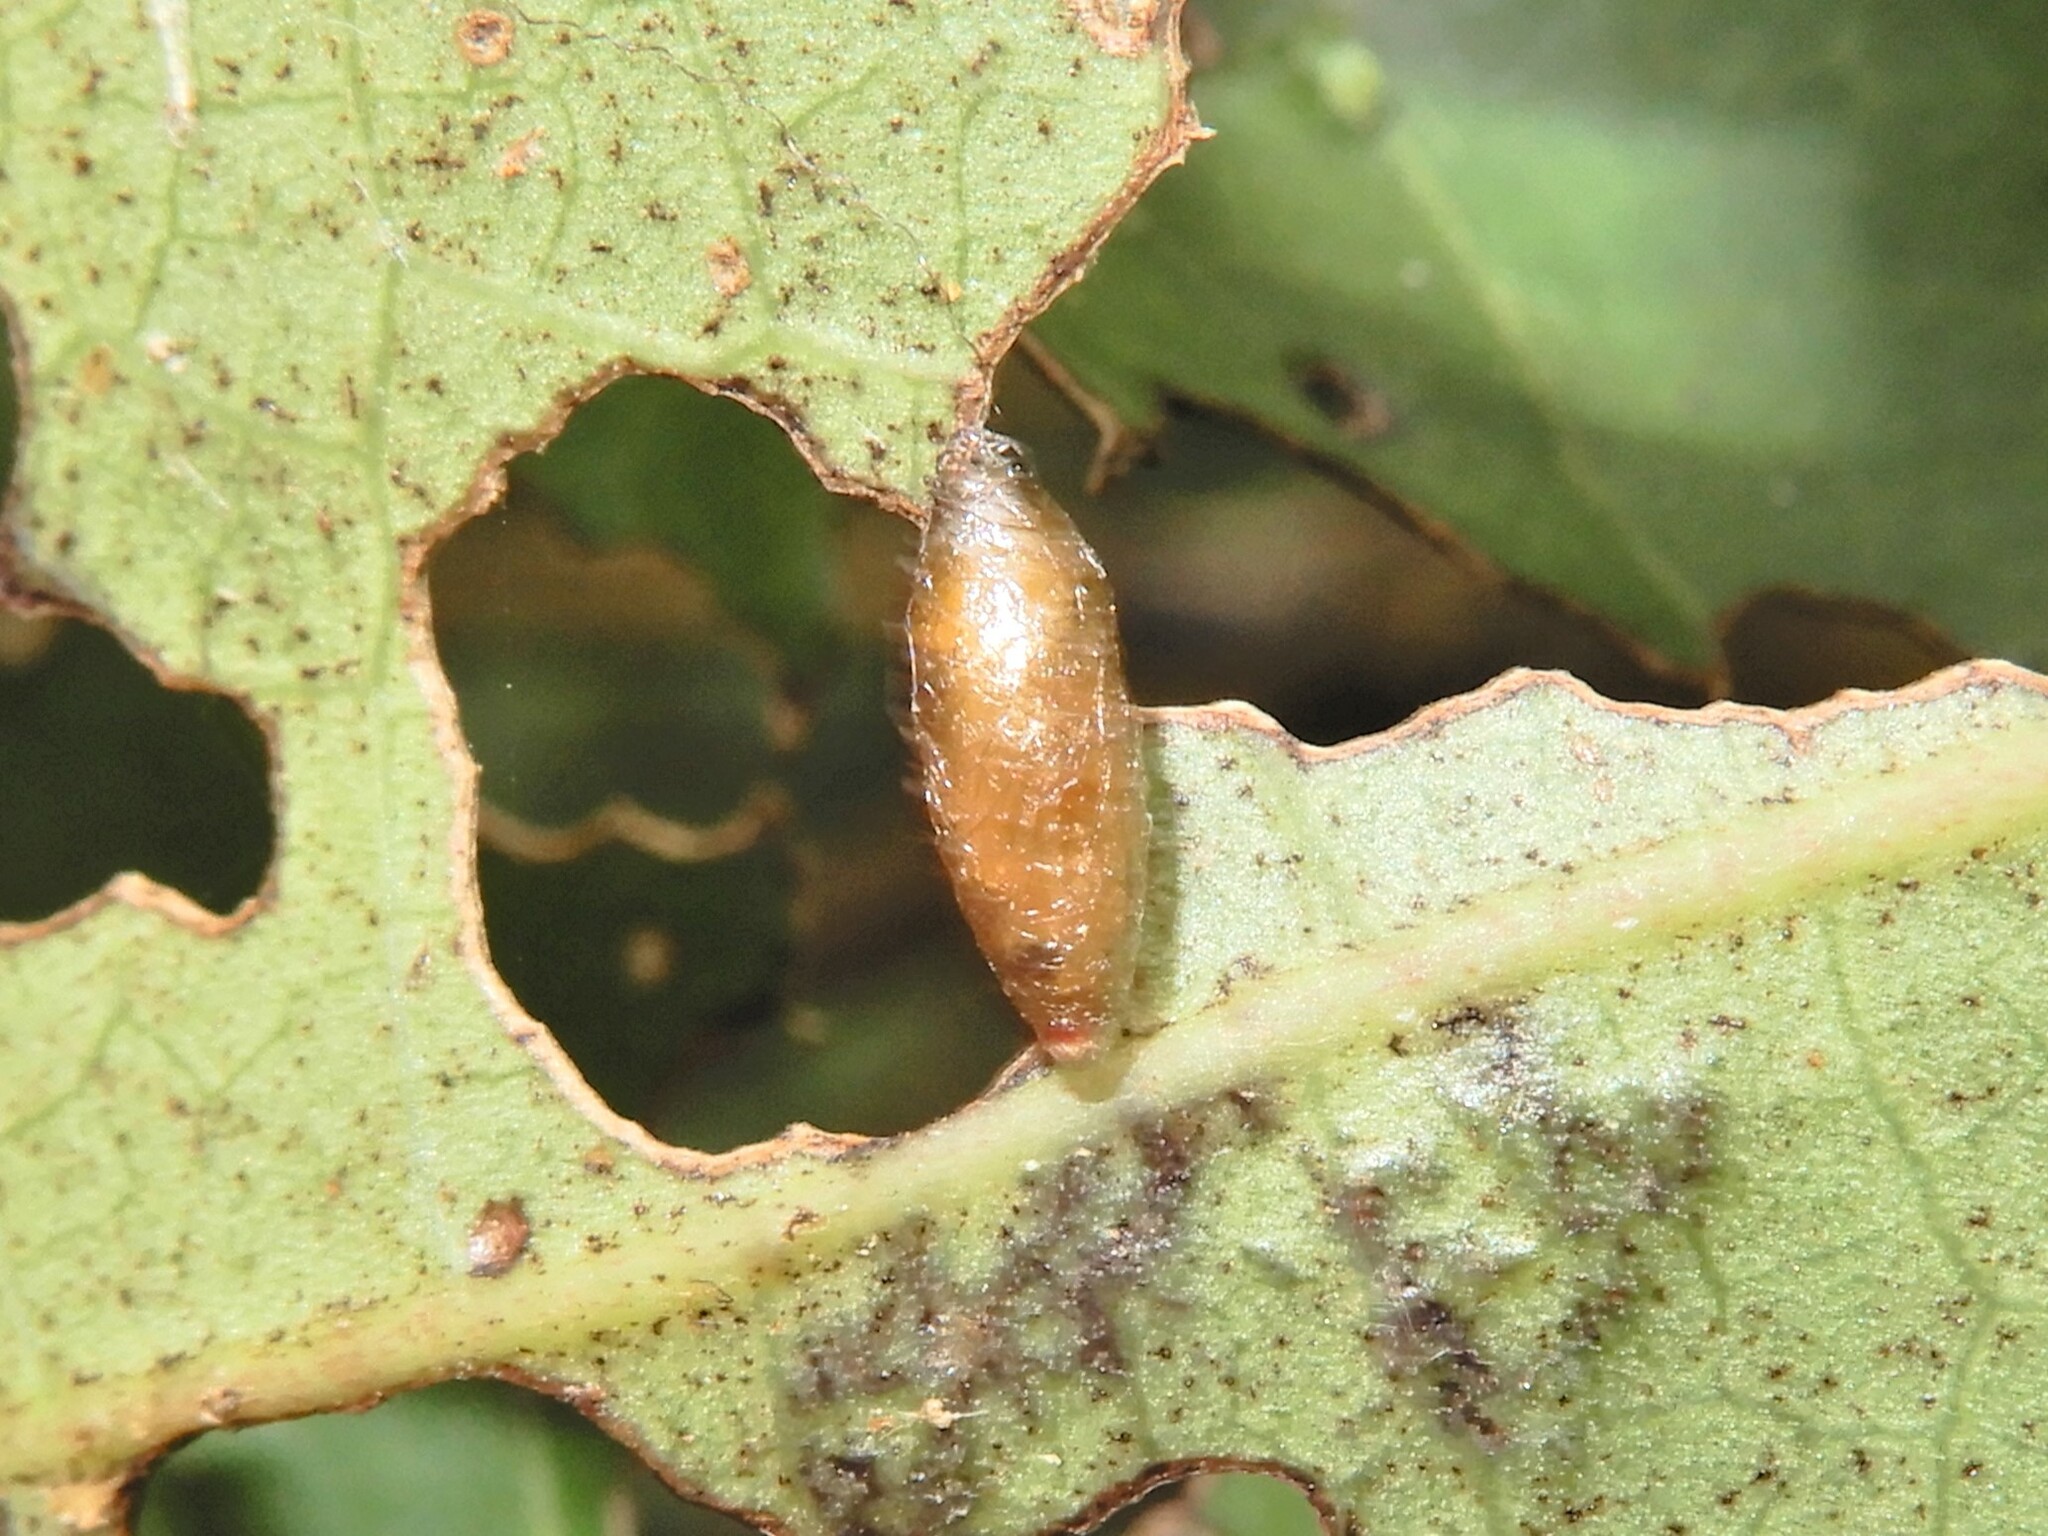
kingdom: Animalia
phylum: Arthropoda
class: Insecta
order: Hymenoptera
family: Braconidae
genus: Meteorus
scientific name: Meteorus pulchricornis
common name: Braconid wasp
